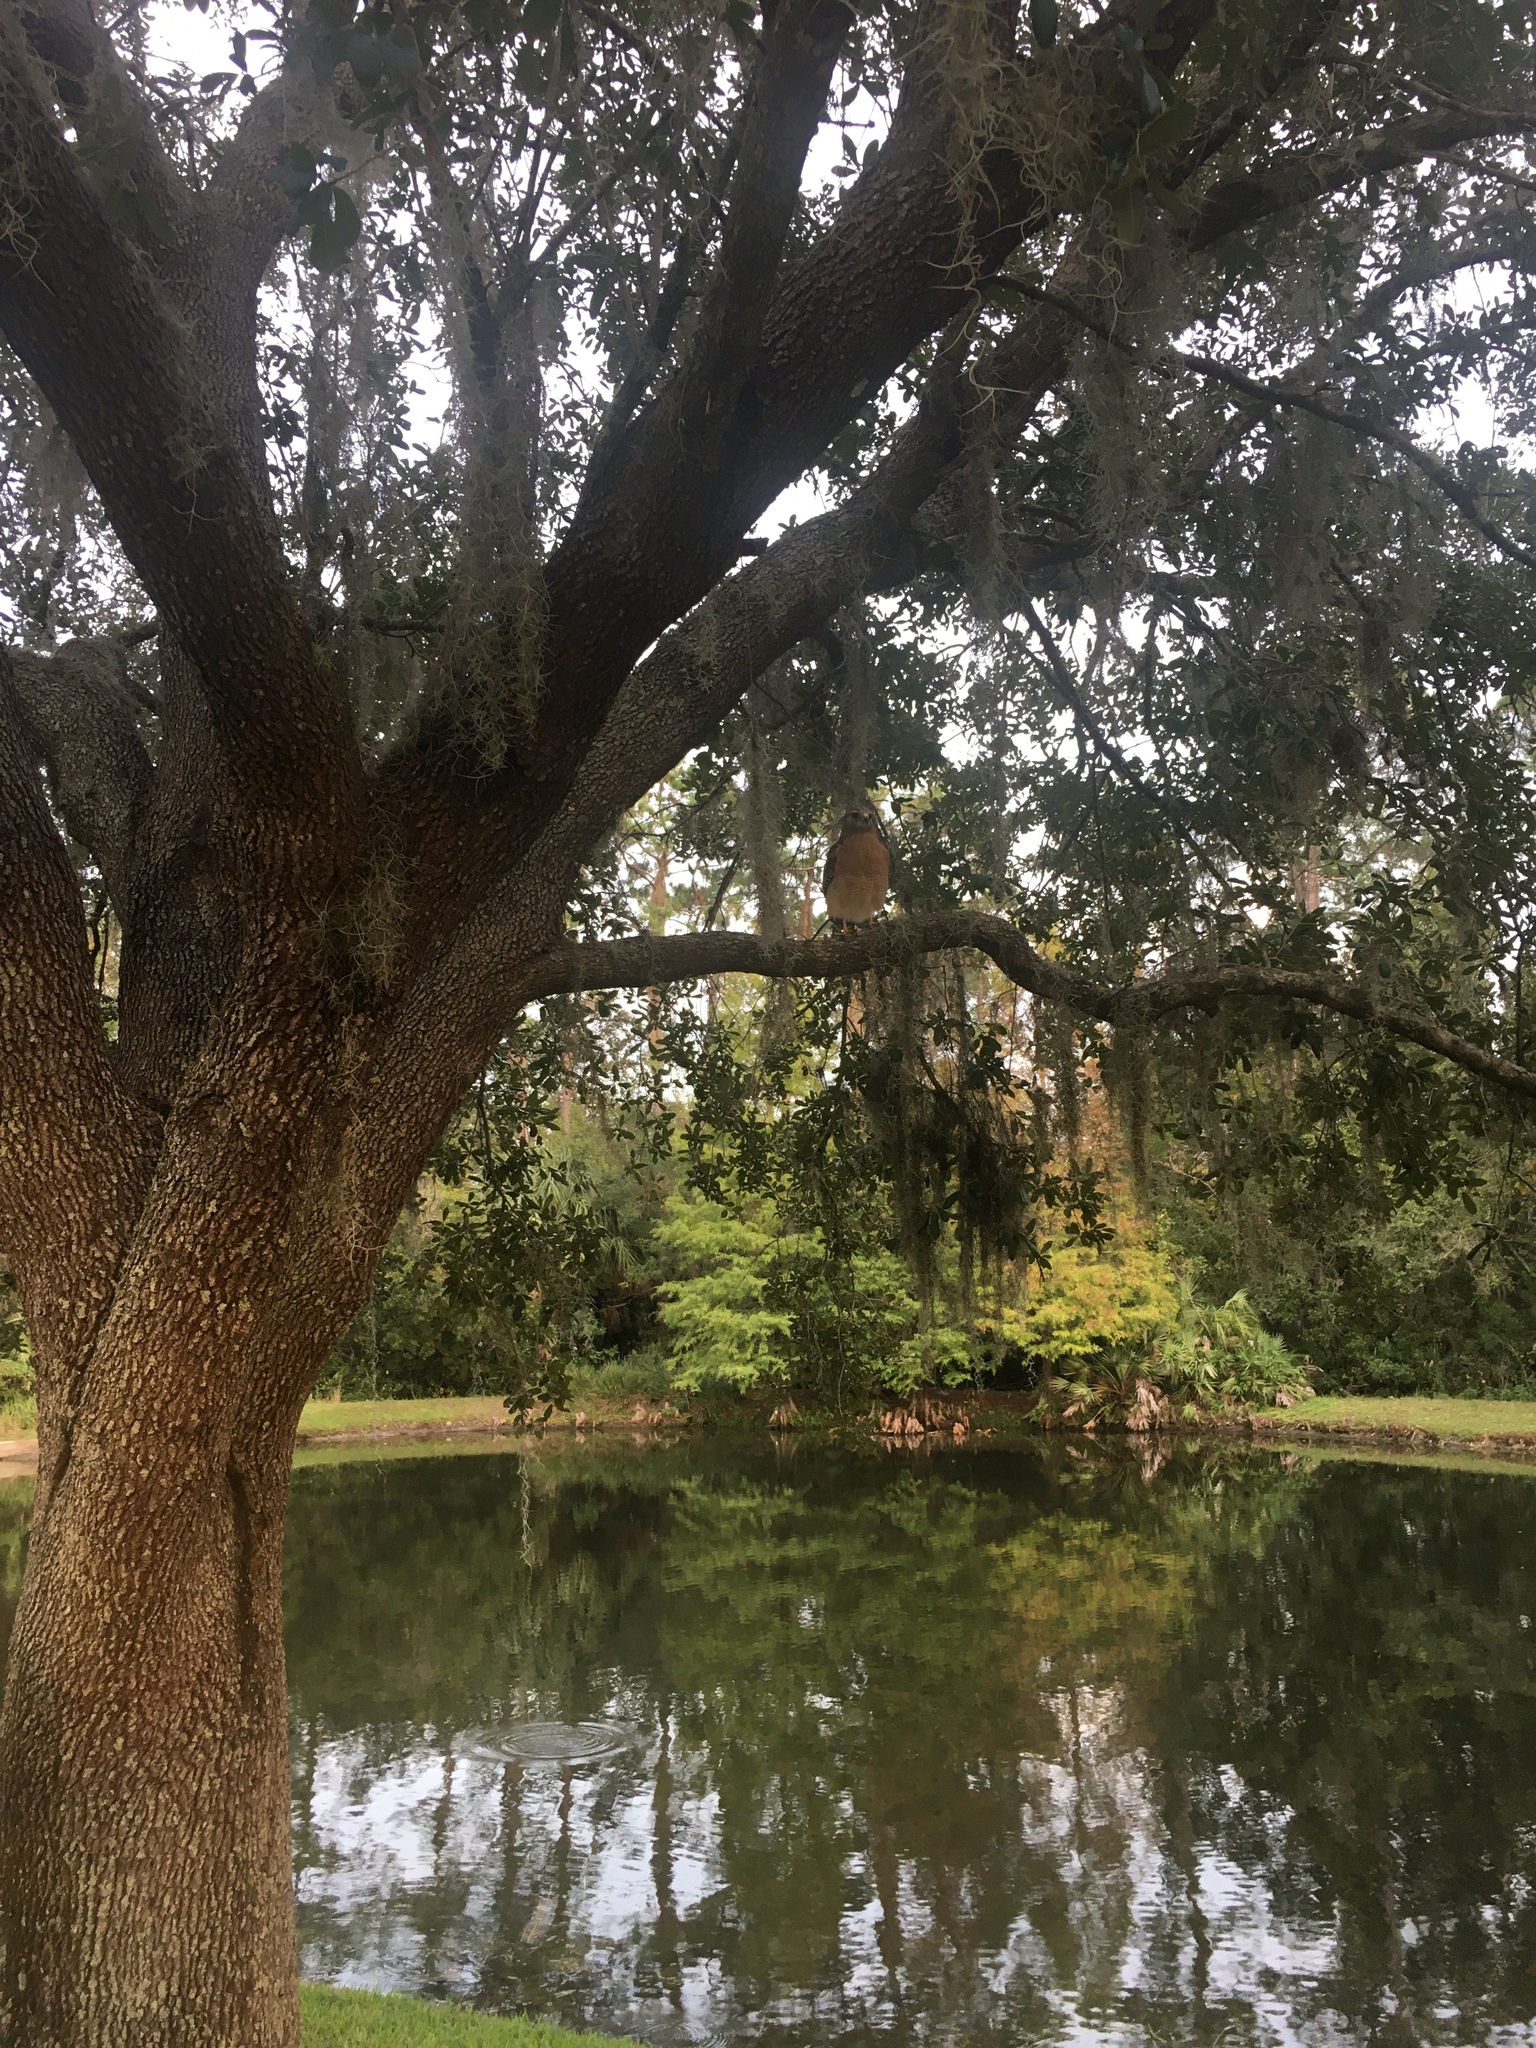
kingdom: Animalia
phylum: Chordata
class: Aves
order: Accipitriformes
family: Accipitridae
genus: Buteo
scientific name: Buteo lineatus
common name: Red-shouldered hawk
